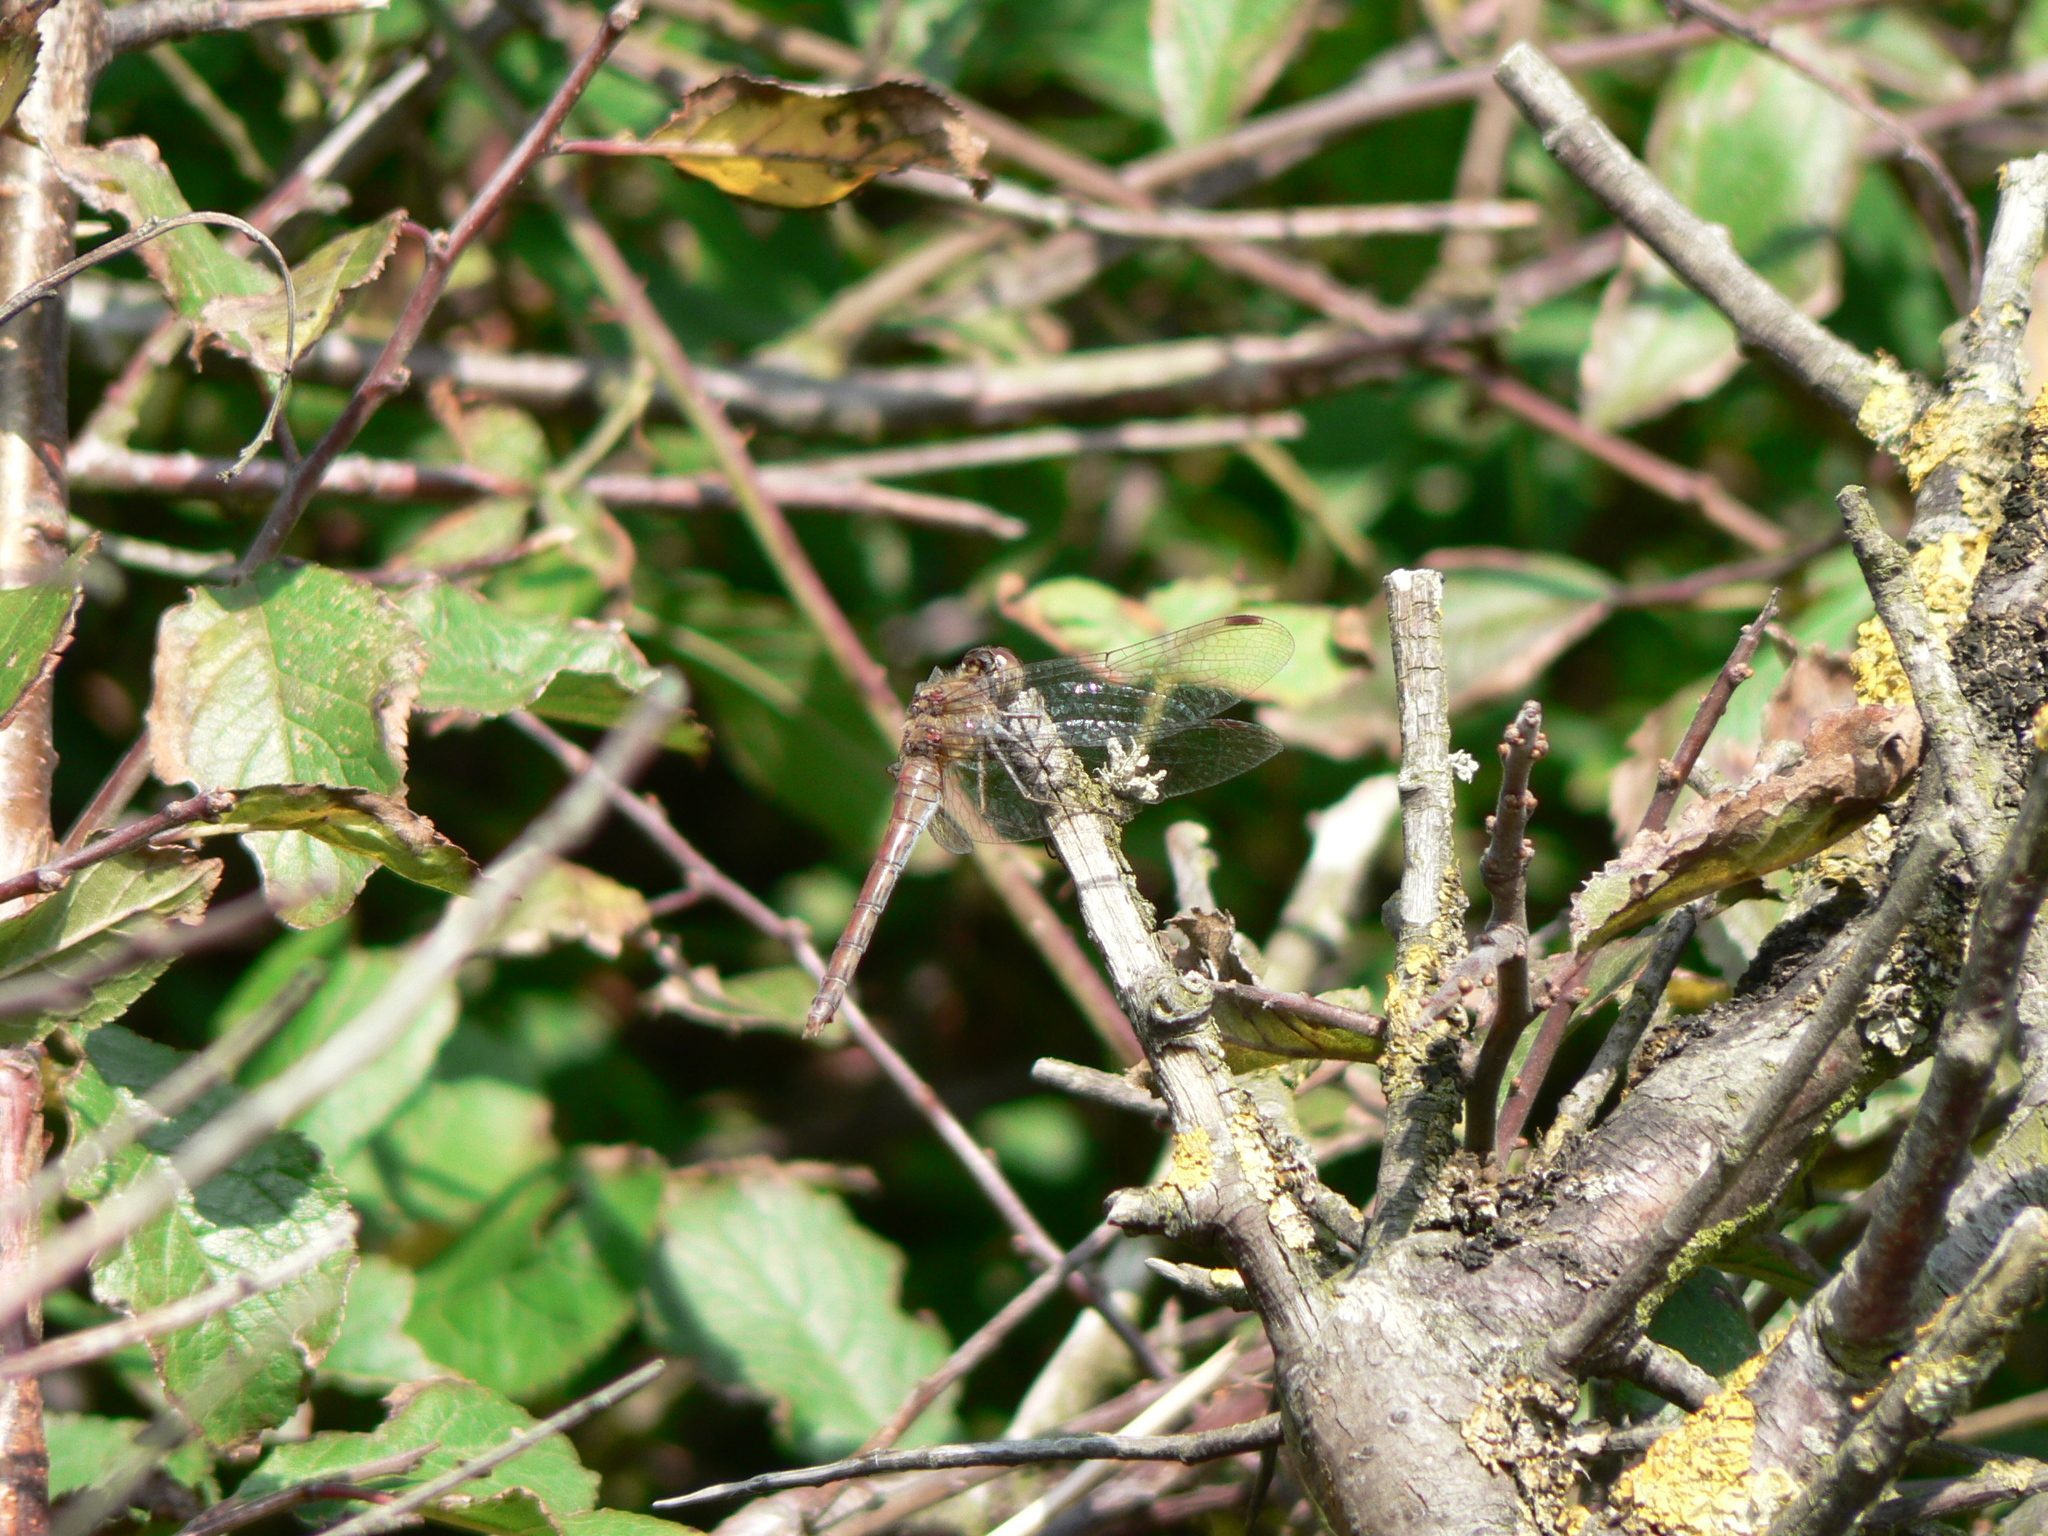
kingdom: Animalia
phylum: Arthropoda
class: Insecta
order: Odonata
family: Libellulidae
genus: Sympetrum
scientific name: Sympetrum striolatum
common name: Common darter
